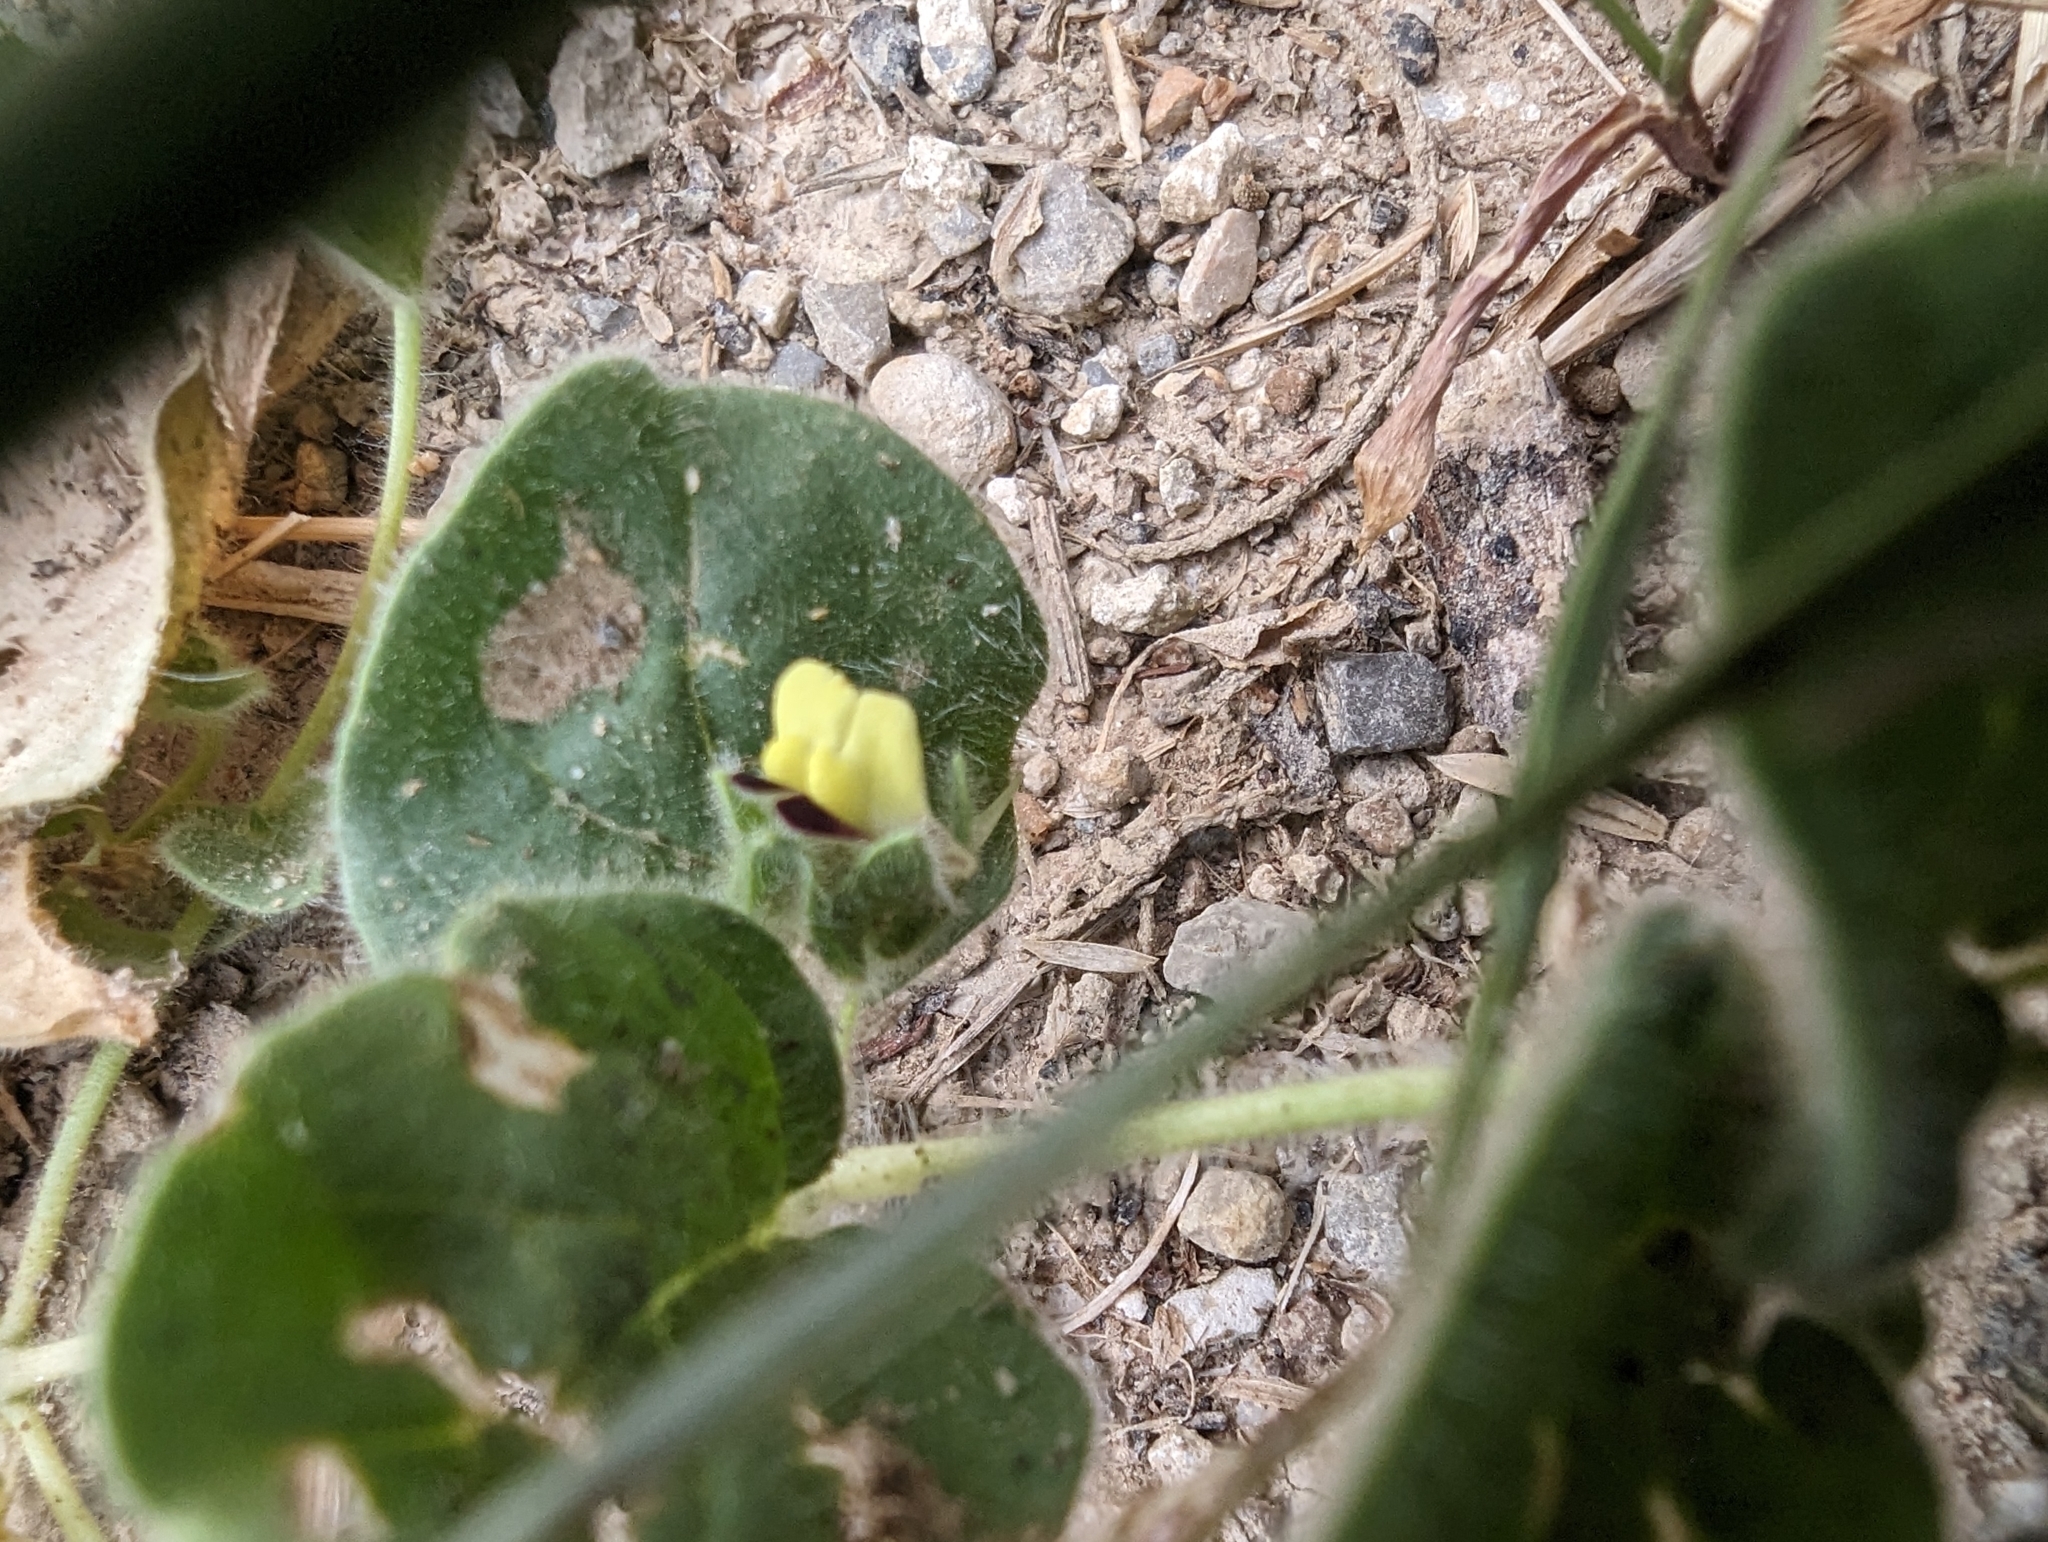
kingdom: Plantae
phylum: Tracheophyta
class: Magnoliopsida
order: Lamiales
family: Plantaginaceae
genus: Kickxia
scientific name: Kickxia spuria
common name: Round-leaved fluellen
